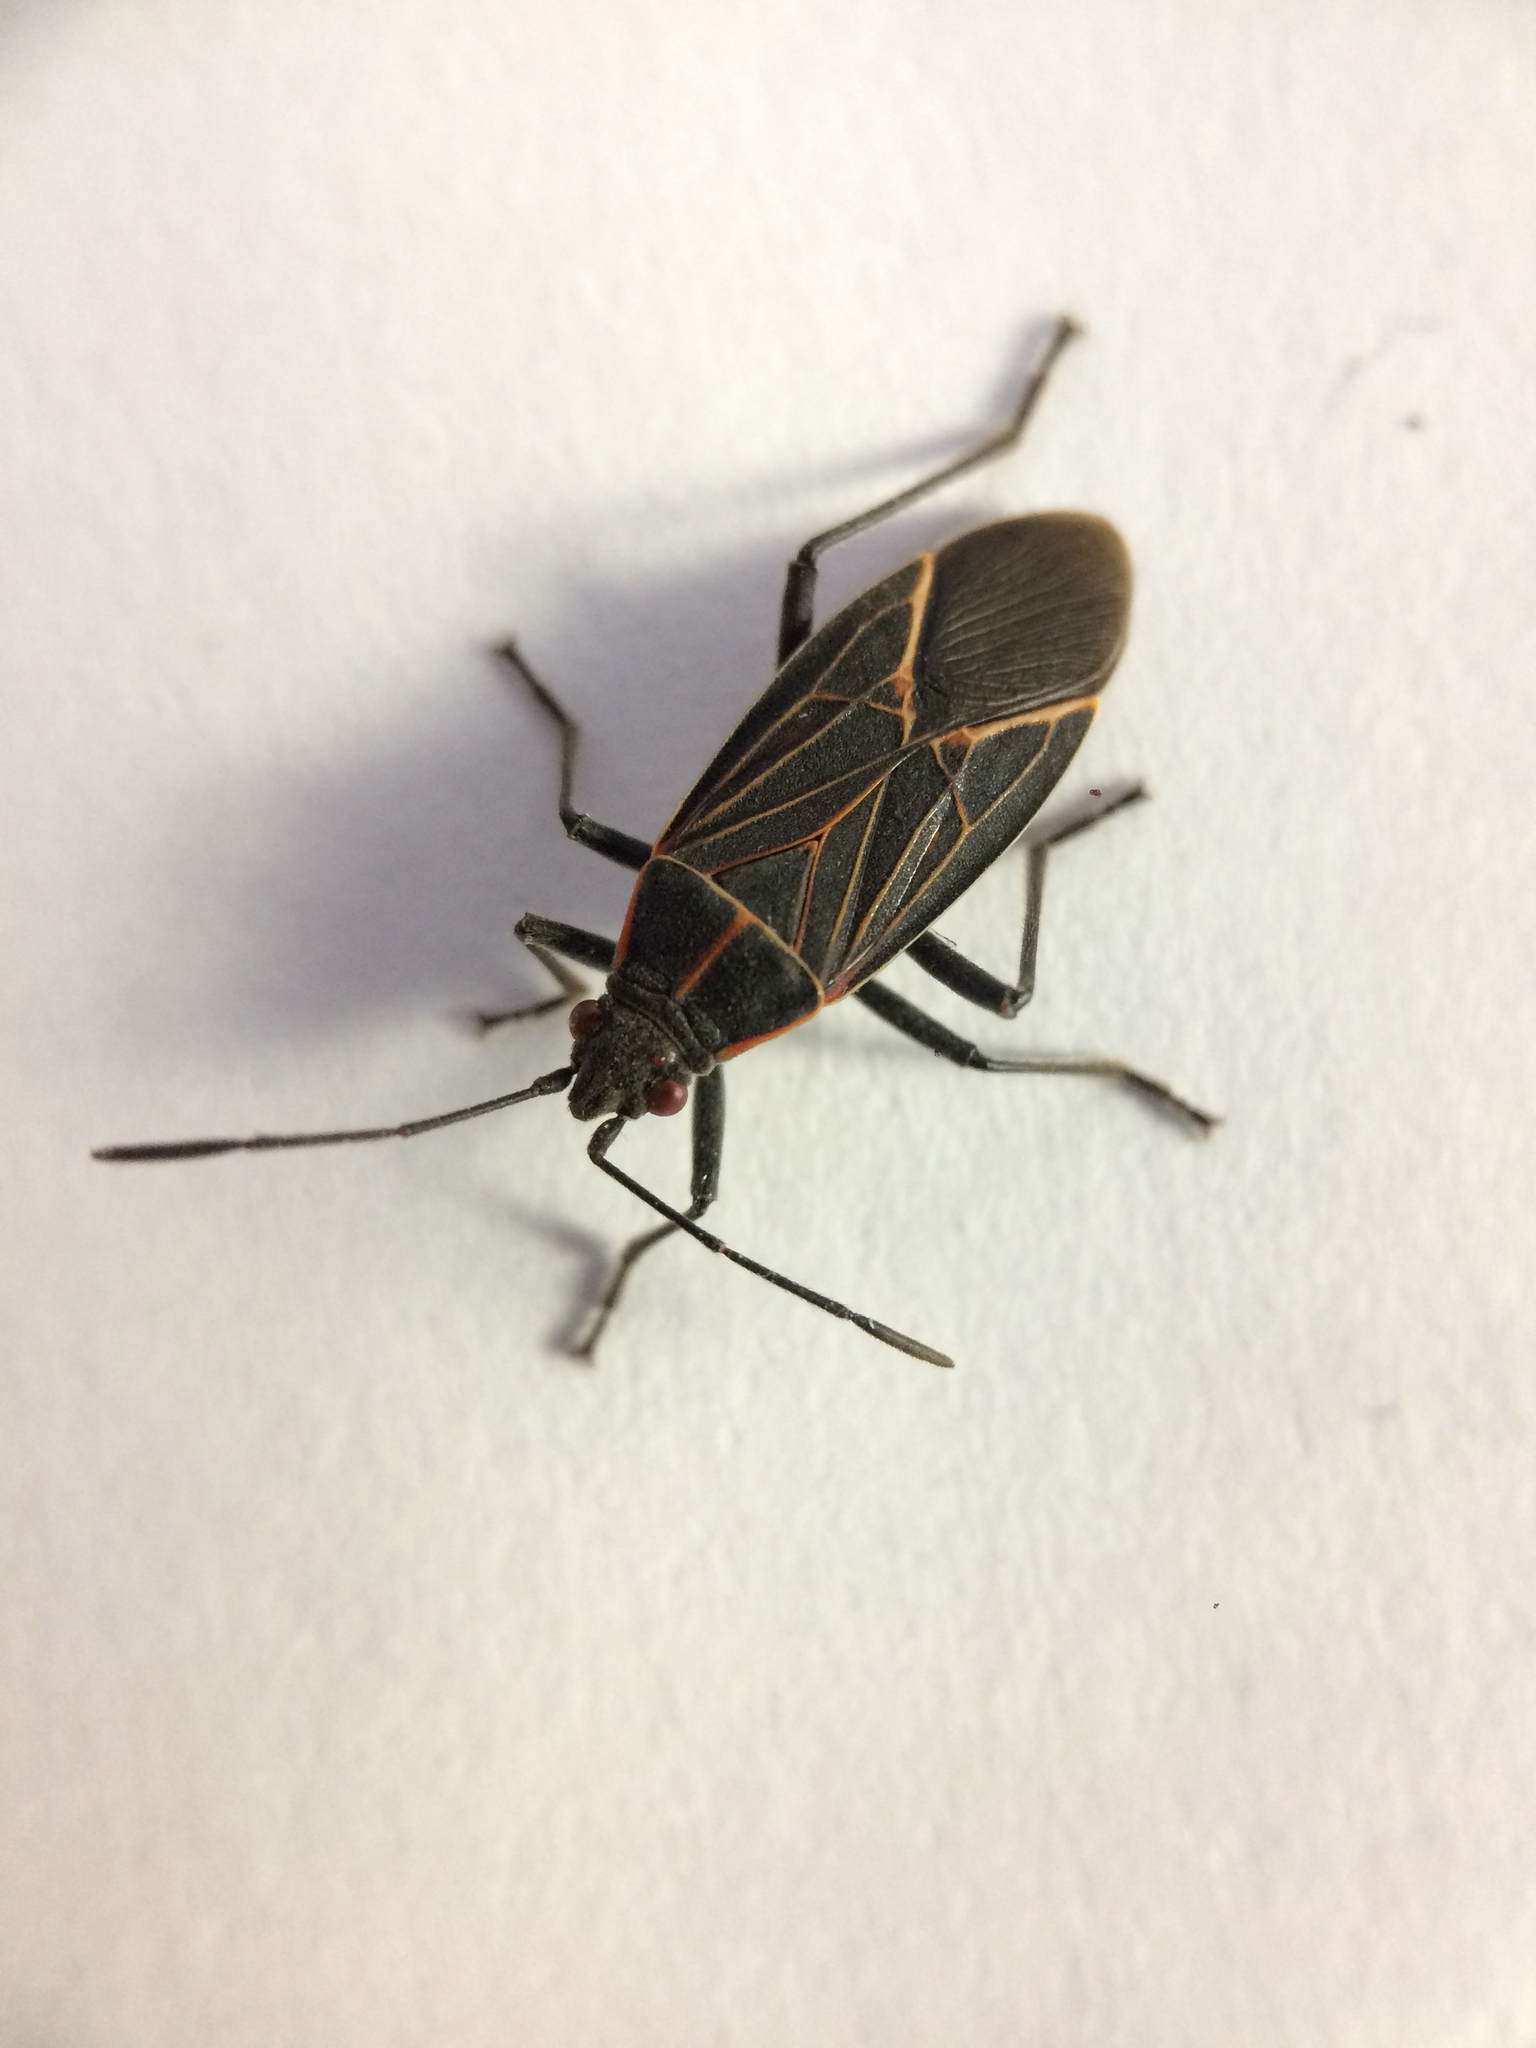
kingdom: Animalia
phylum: Arthropoda
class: Insecta
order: Hemiptera
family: Rhopalidae
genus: Boisea
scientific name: Boisea rubrolineata
